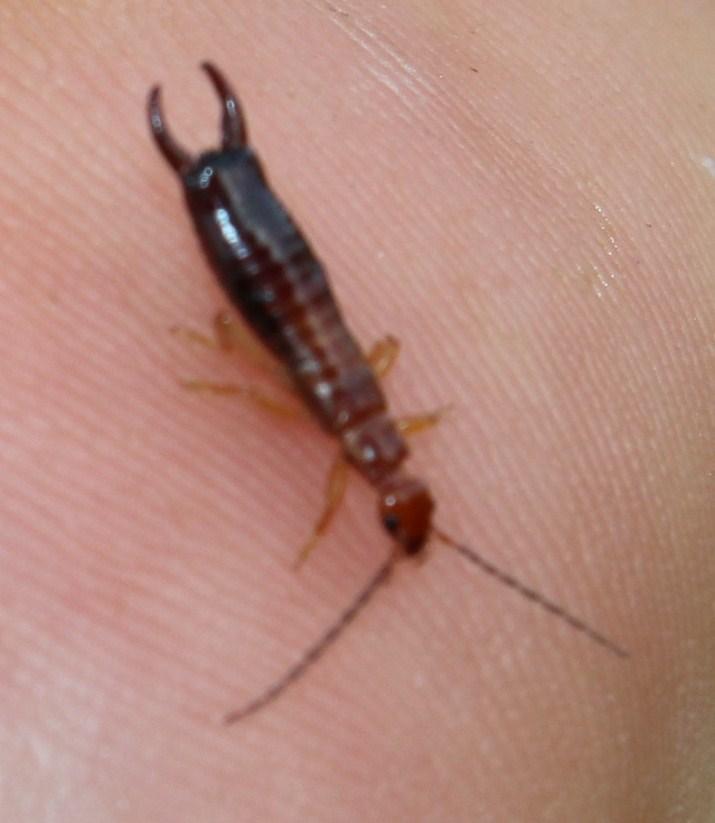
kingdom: Animalia
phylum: Arthropoda
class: Insecta
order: Dermaptera
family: Forficulidae
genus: Proforficula
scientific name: Proforficula peringueyi
